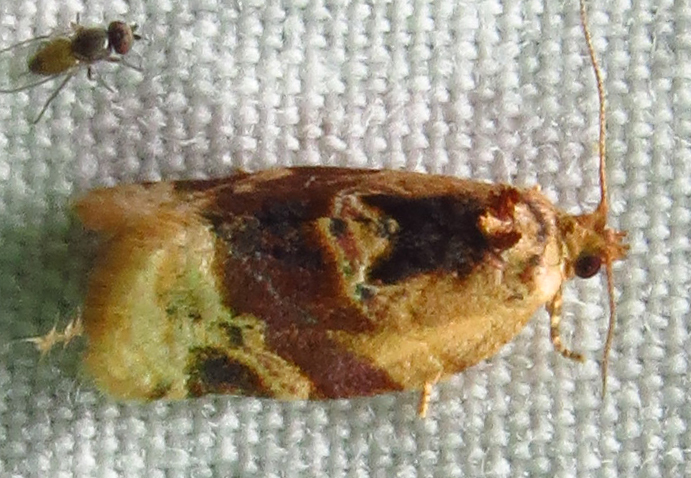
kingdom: Animalia
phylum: Arthropoda
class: Insecta
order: Lepidoptera
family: Tortricidae
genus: Argyrotaenia
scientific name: Argyrotaenia velutinana
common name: Red-banded leafroller moth
